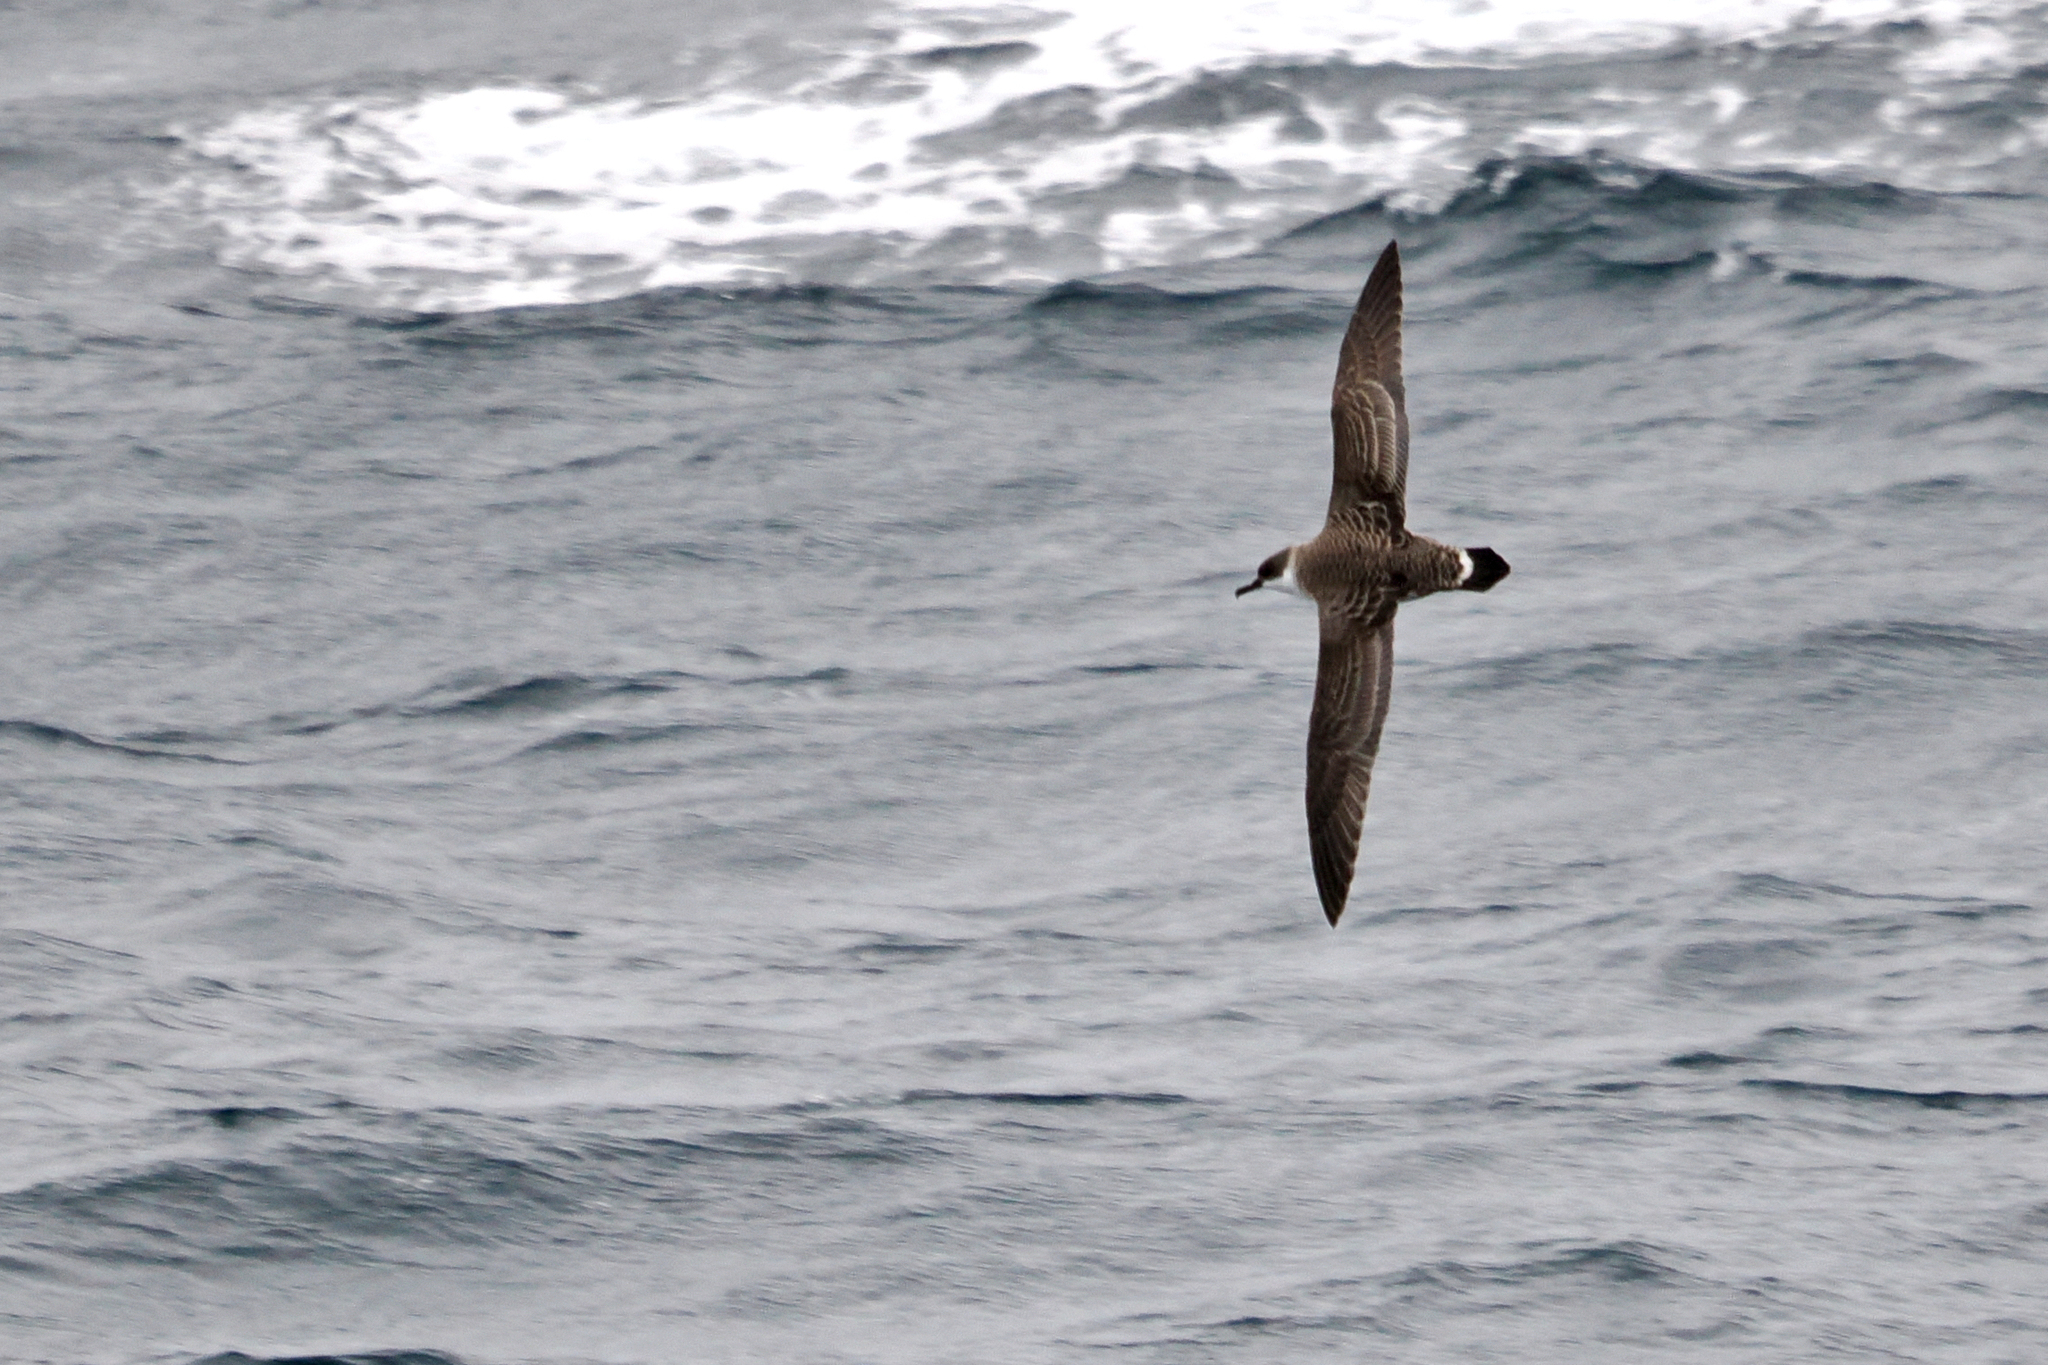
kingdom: Animalia
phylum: Chordata
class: Aves
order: Procellariiformes
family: Procellariidae
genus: Puffinus
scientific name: Puffinus gravis
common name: Great shearwater
